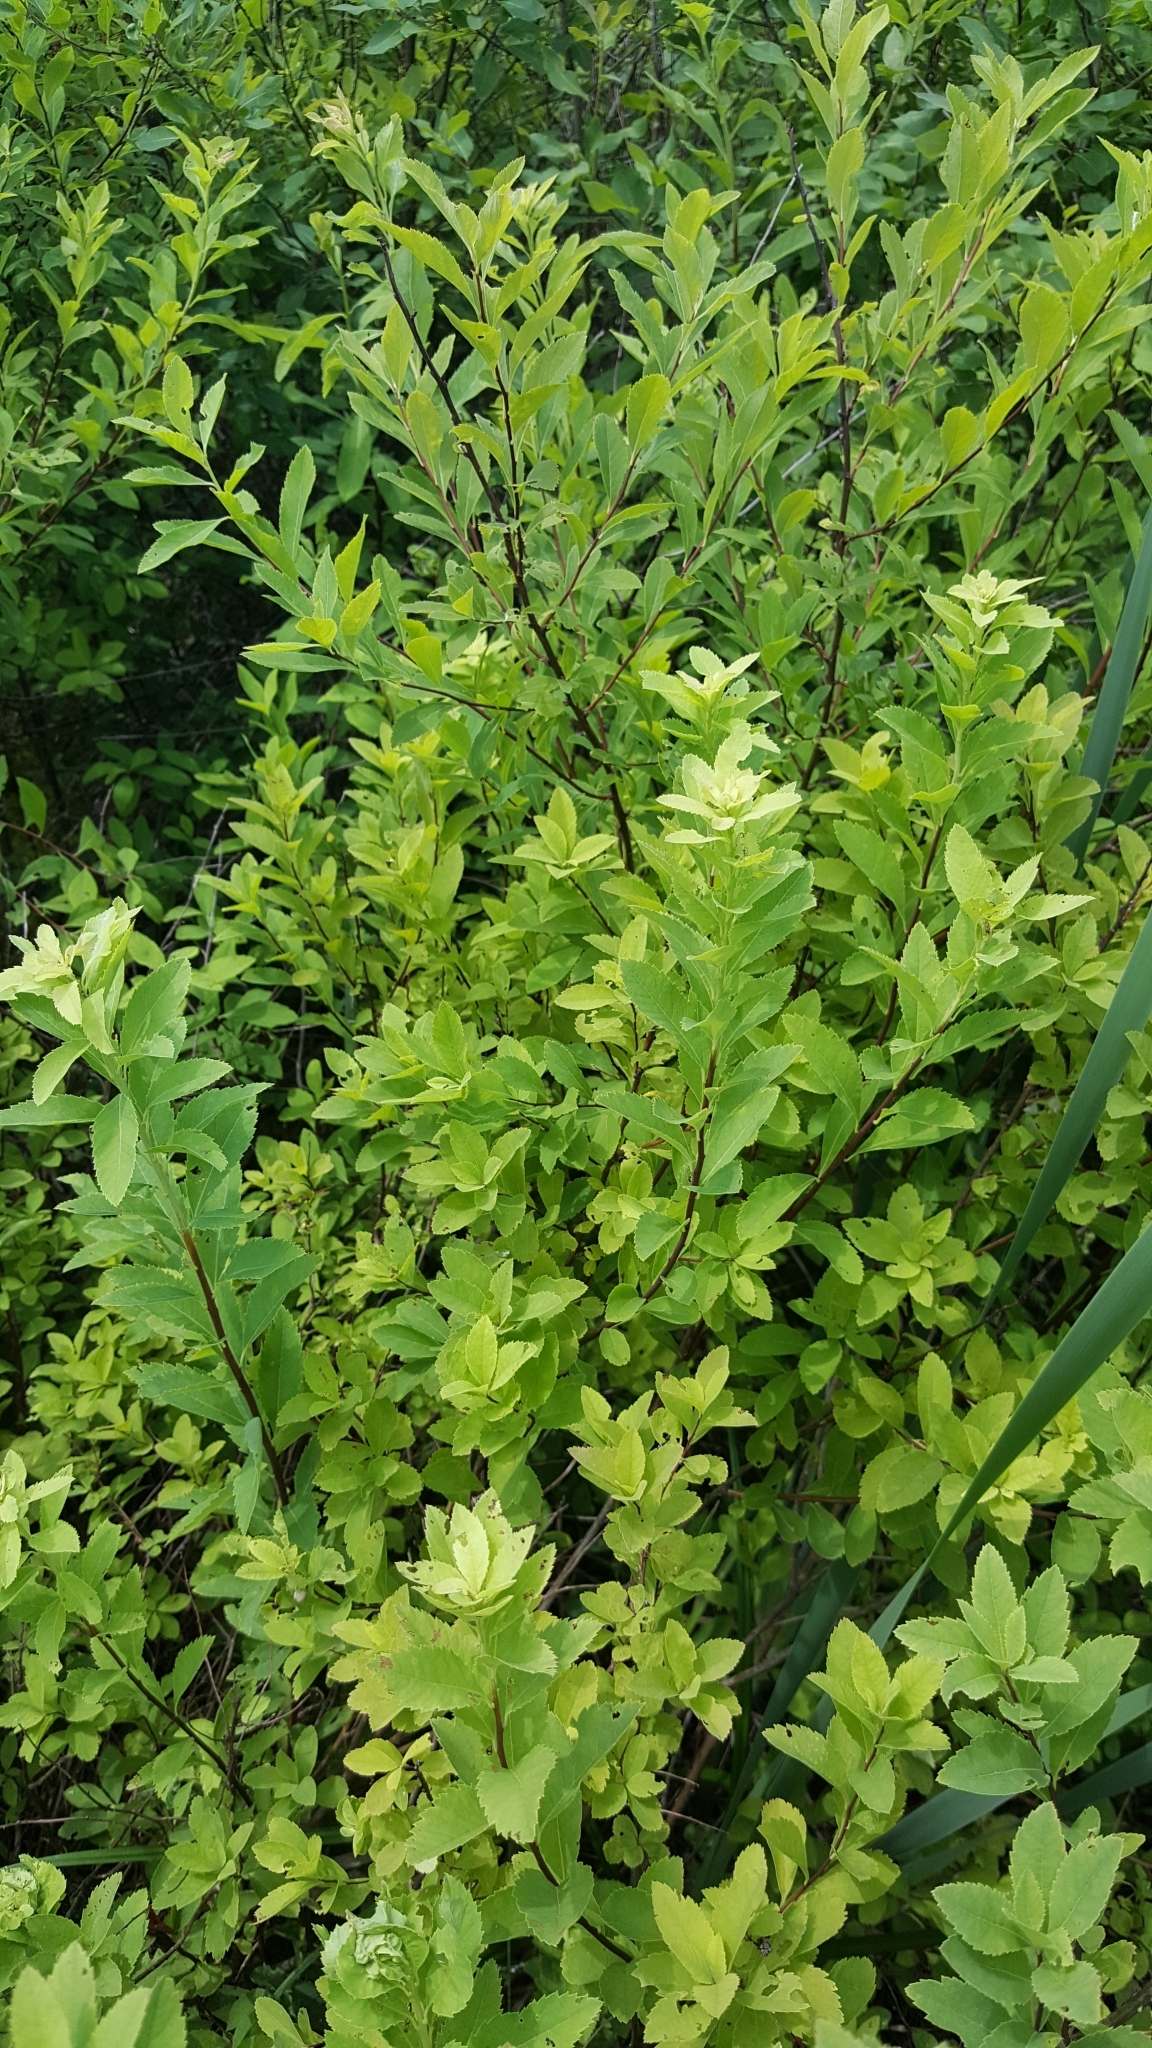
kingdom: Plantae
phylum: Tracheophyta
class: Magnoliopsida
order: Rosales
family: Rosaceae
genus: Spiraea
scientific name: Spiraea alba
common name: Pale bridewort
